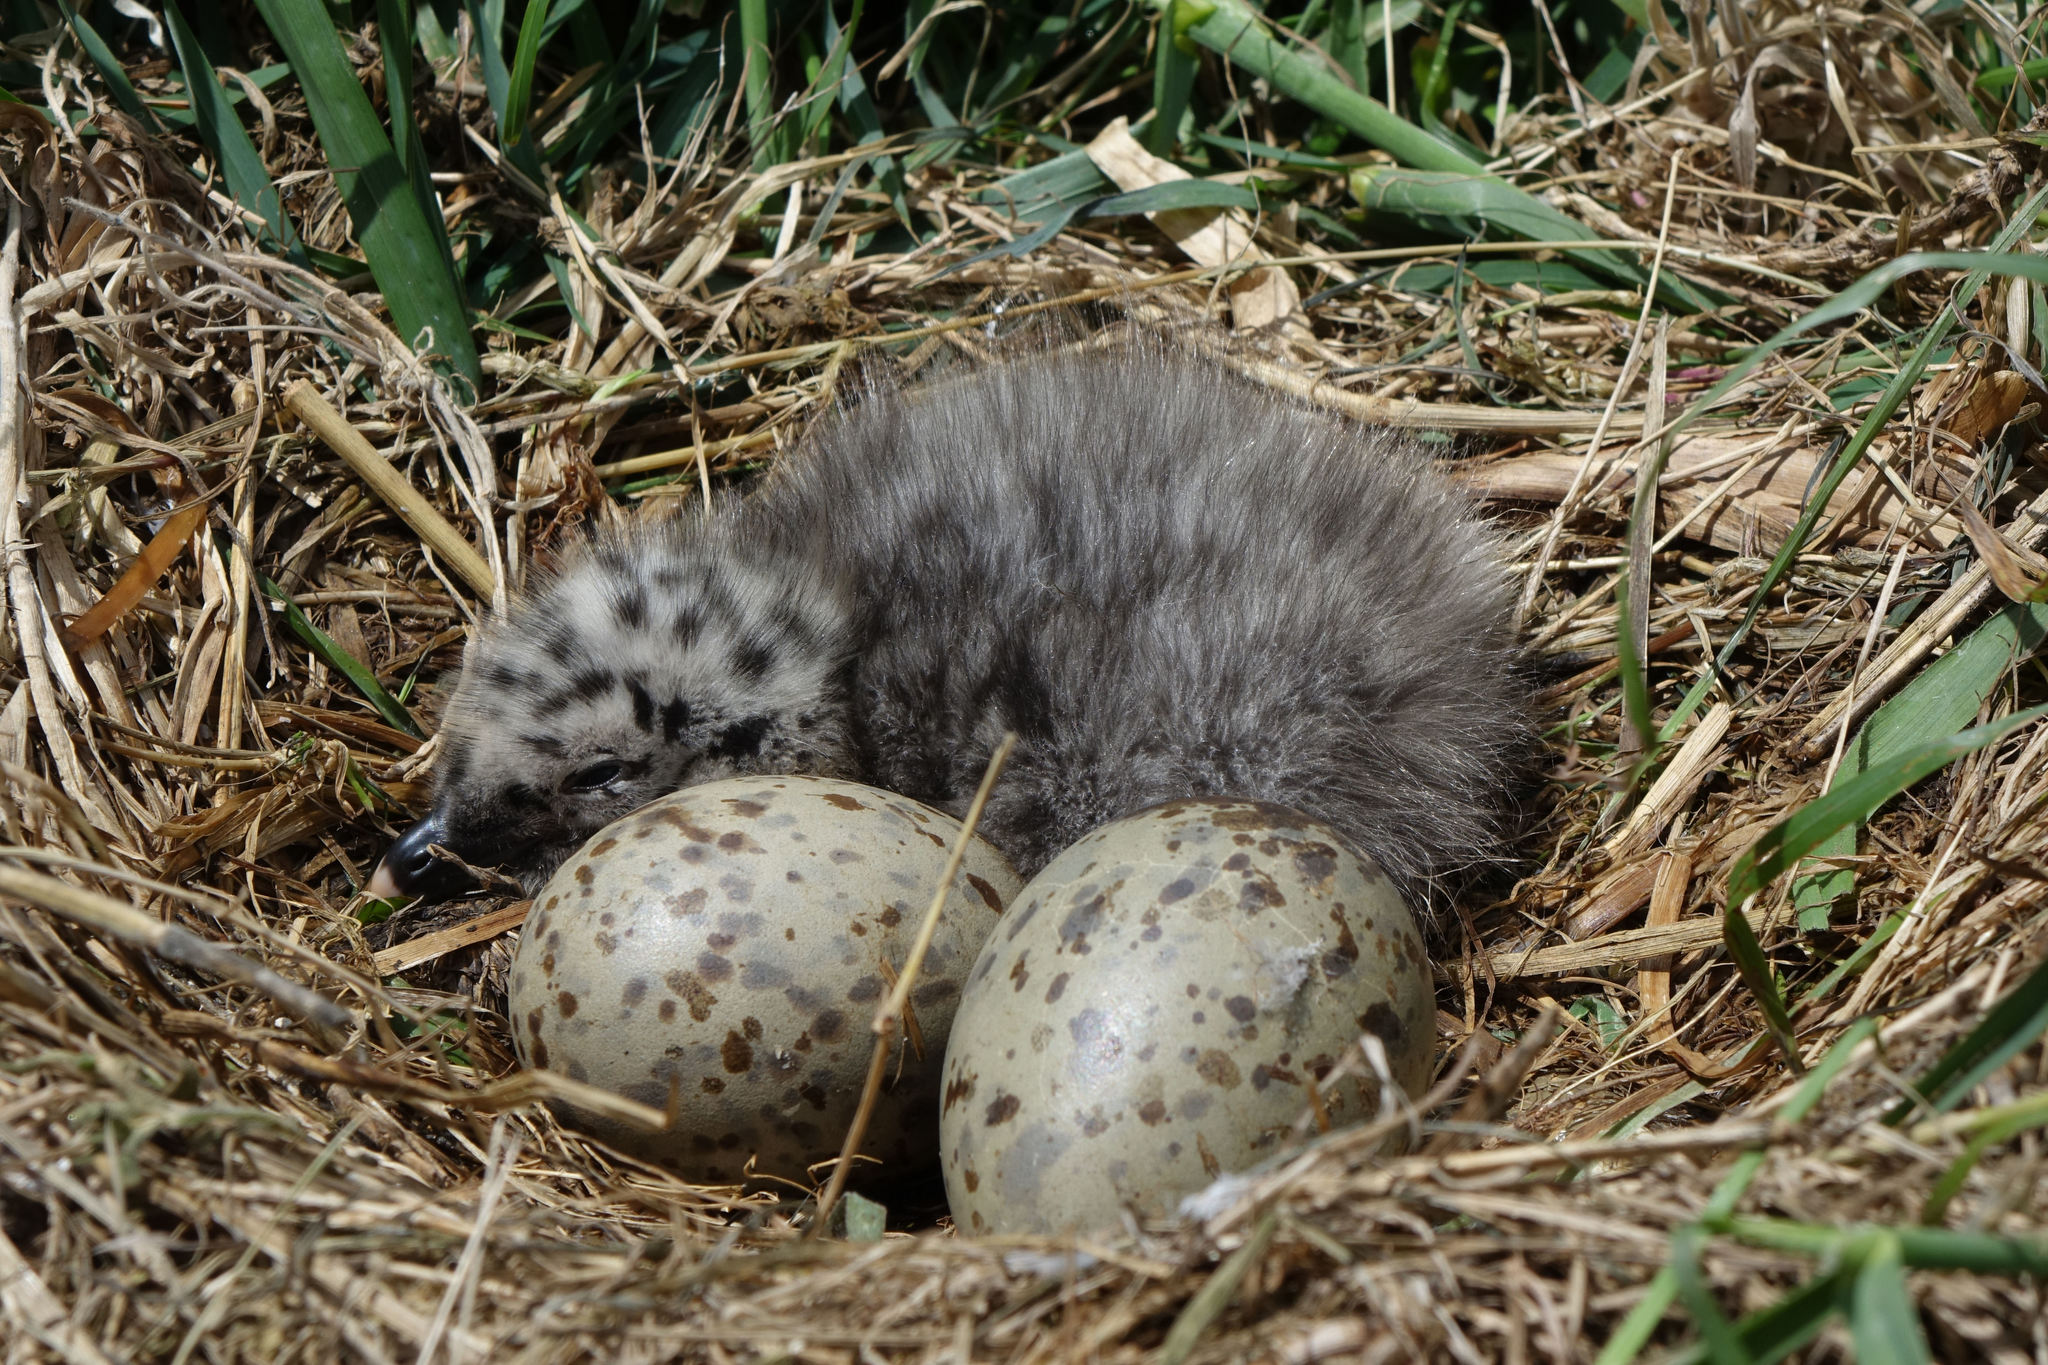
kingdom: Animalia
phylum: Chordata
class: Aves
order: Charadriiformes
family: Laridae
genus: Larus
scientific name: Larus dominicanus
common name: Kelp gull
